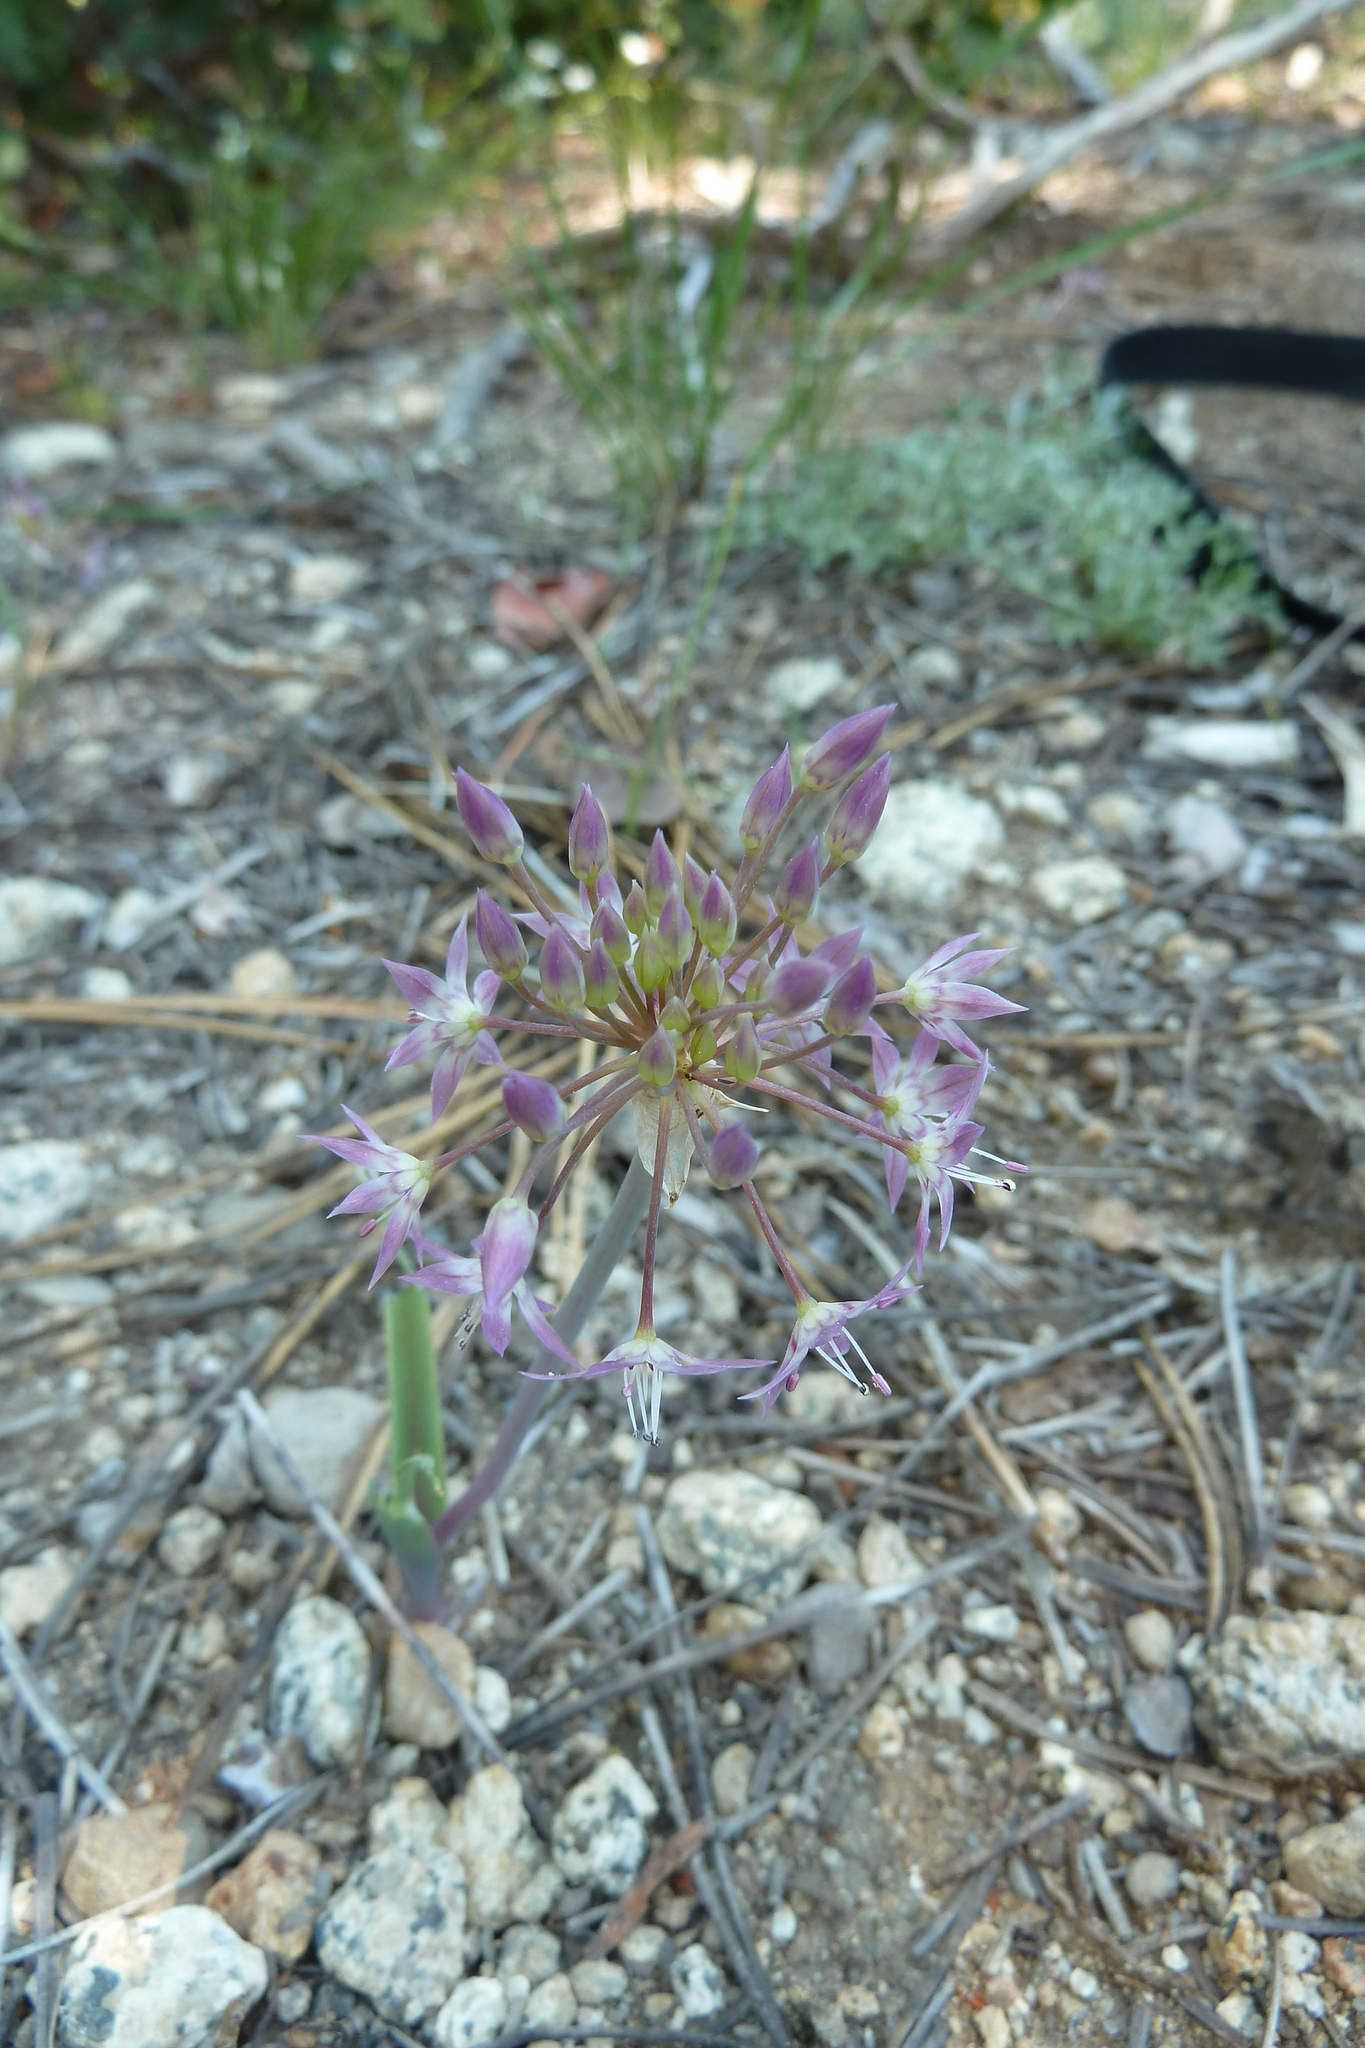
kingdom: Plantae
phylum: Tracheophyta
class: Liliopsida
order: Asparagales
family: Amaryllidaceae
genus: Allium
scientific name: Allium campanulatum
